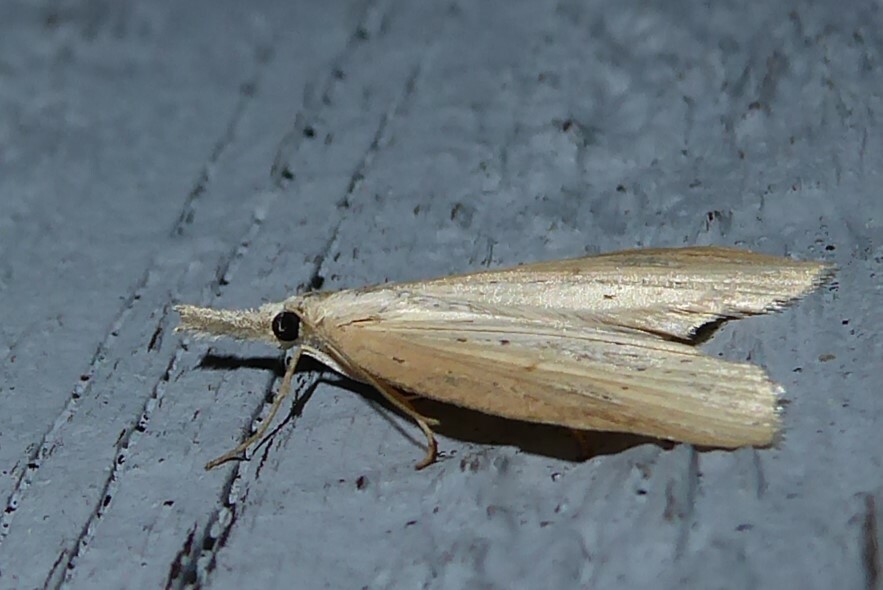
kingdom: Animalia
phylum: Arthropoda
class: Insecta
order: Lepidoptera
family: Geometridae
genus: Microdes
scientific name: Microdes epicryptis
